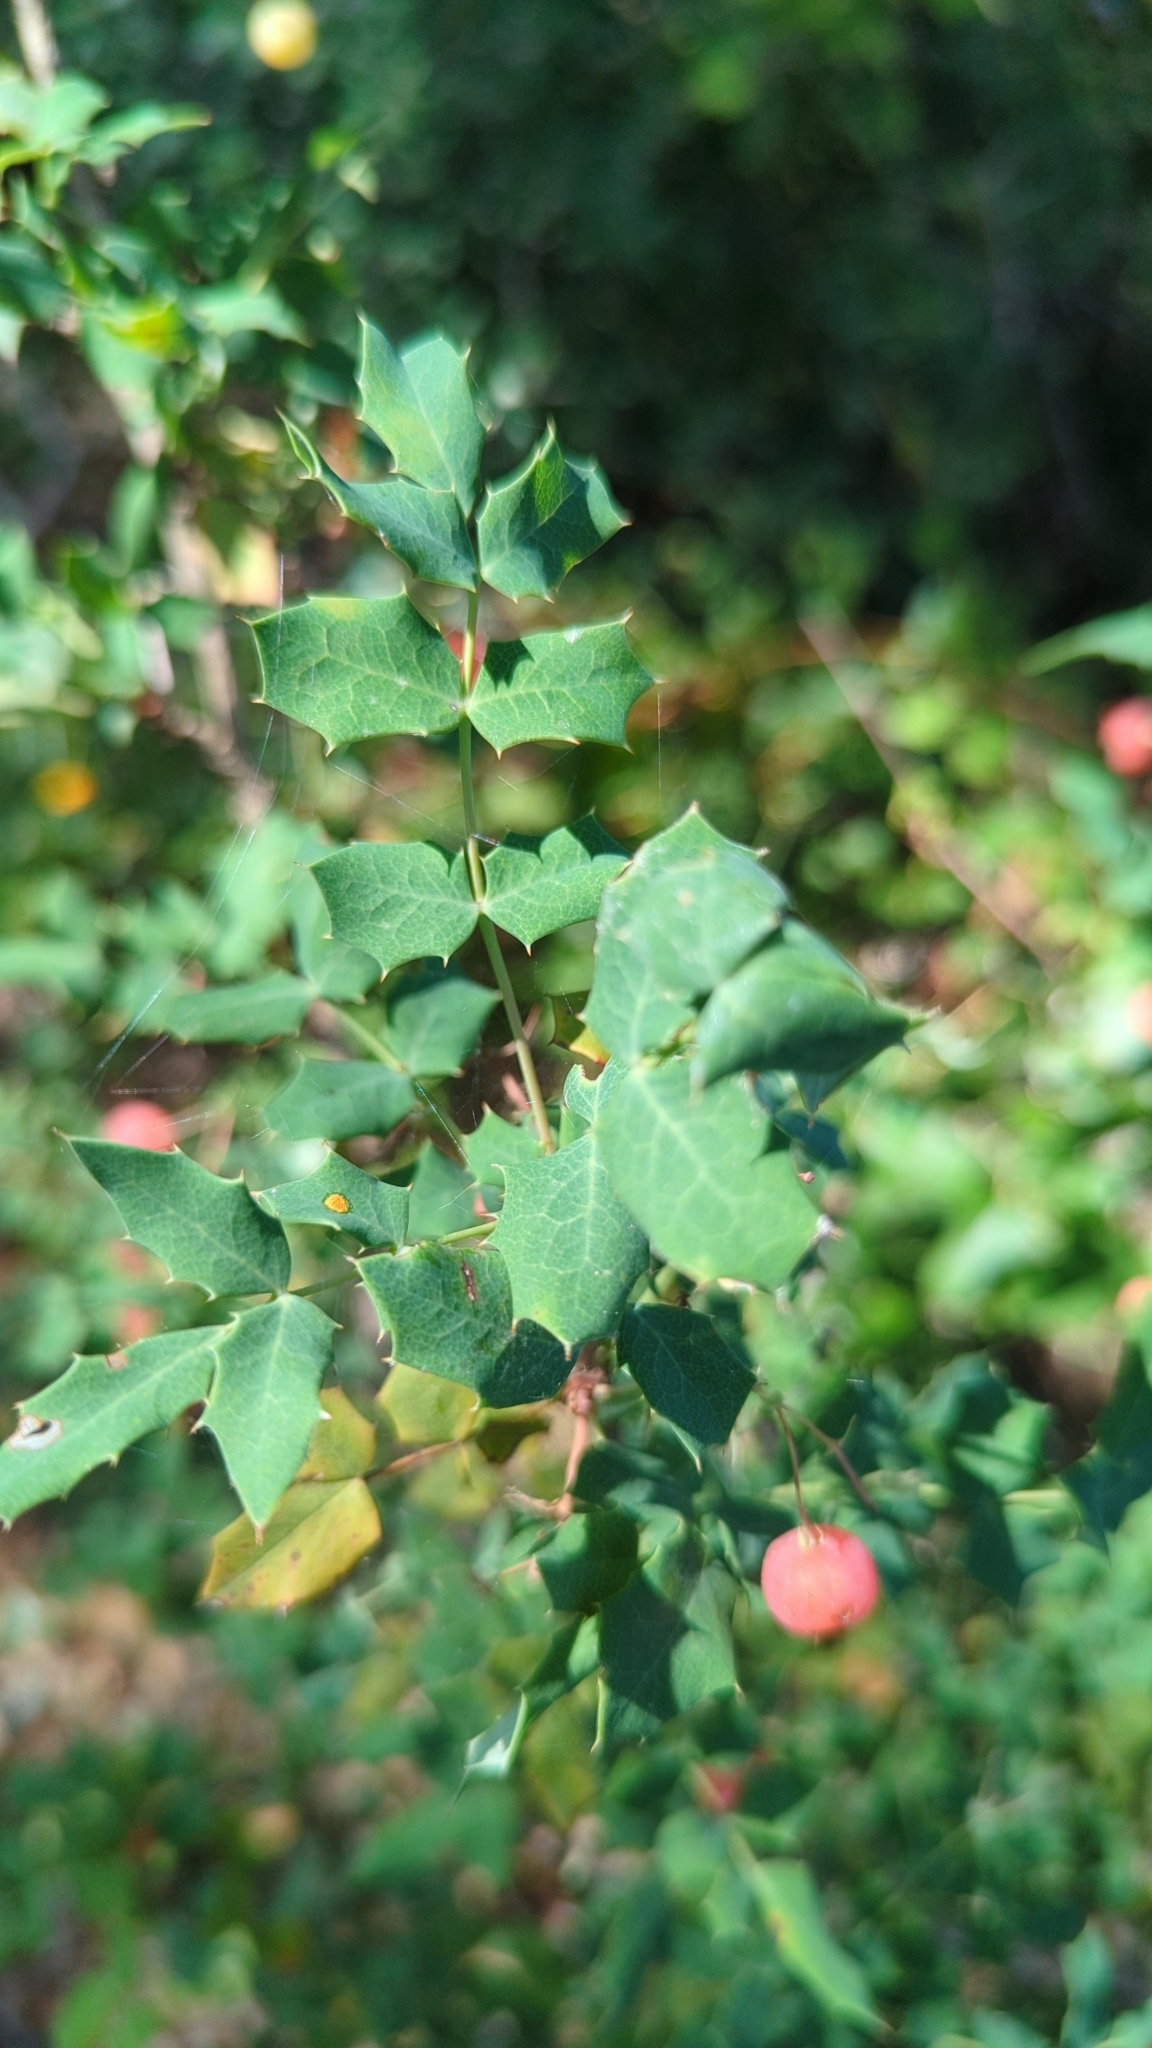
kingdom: Plantae
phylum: Tracheophyta
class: Magnoliopsida
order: Ranunculales
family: Berberidaceae
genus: Berberis
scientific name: Berberis swaseyi
